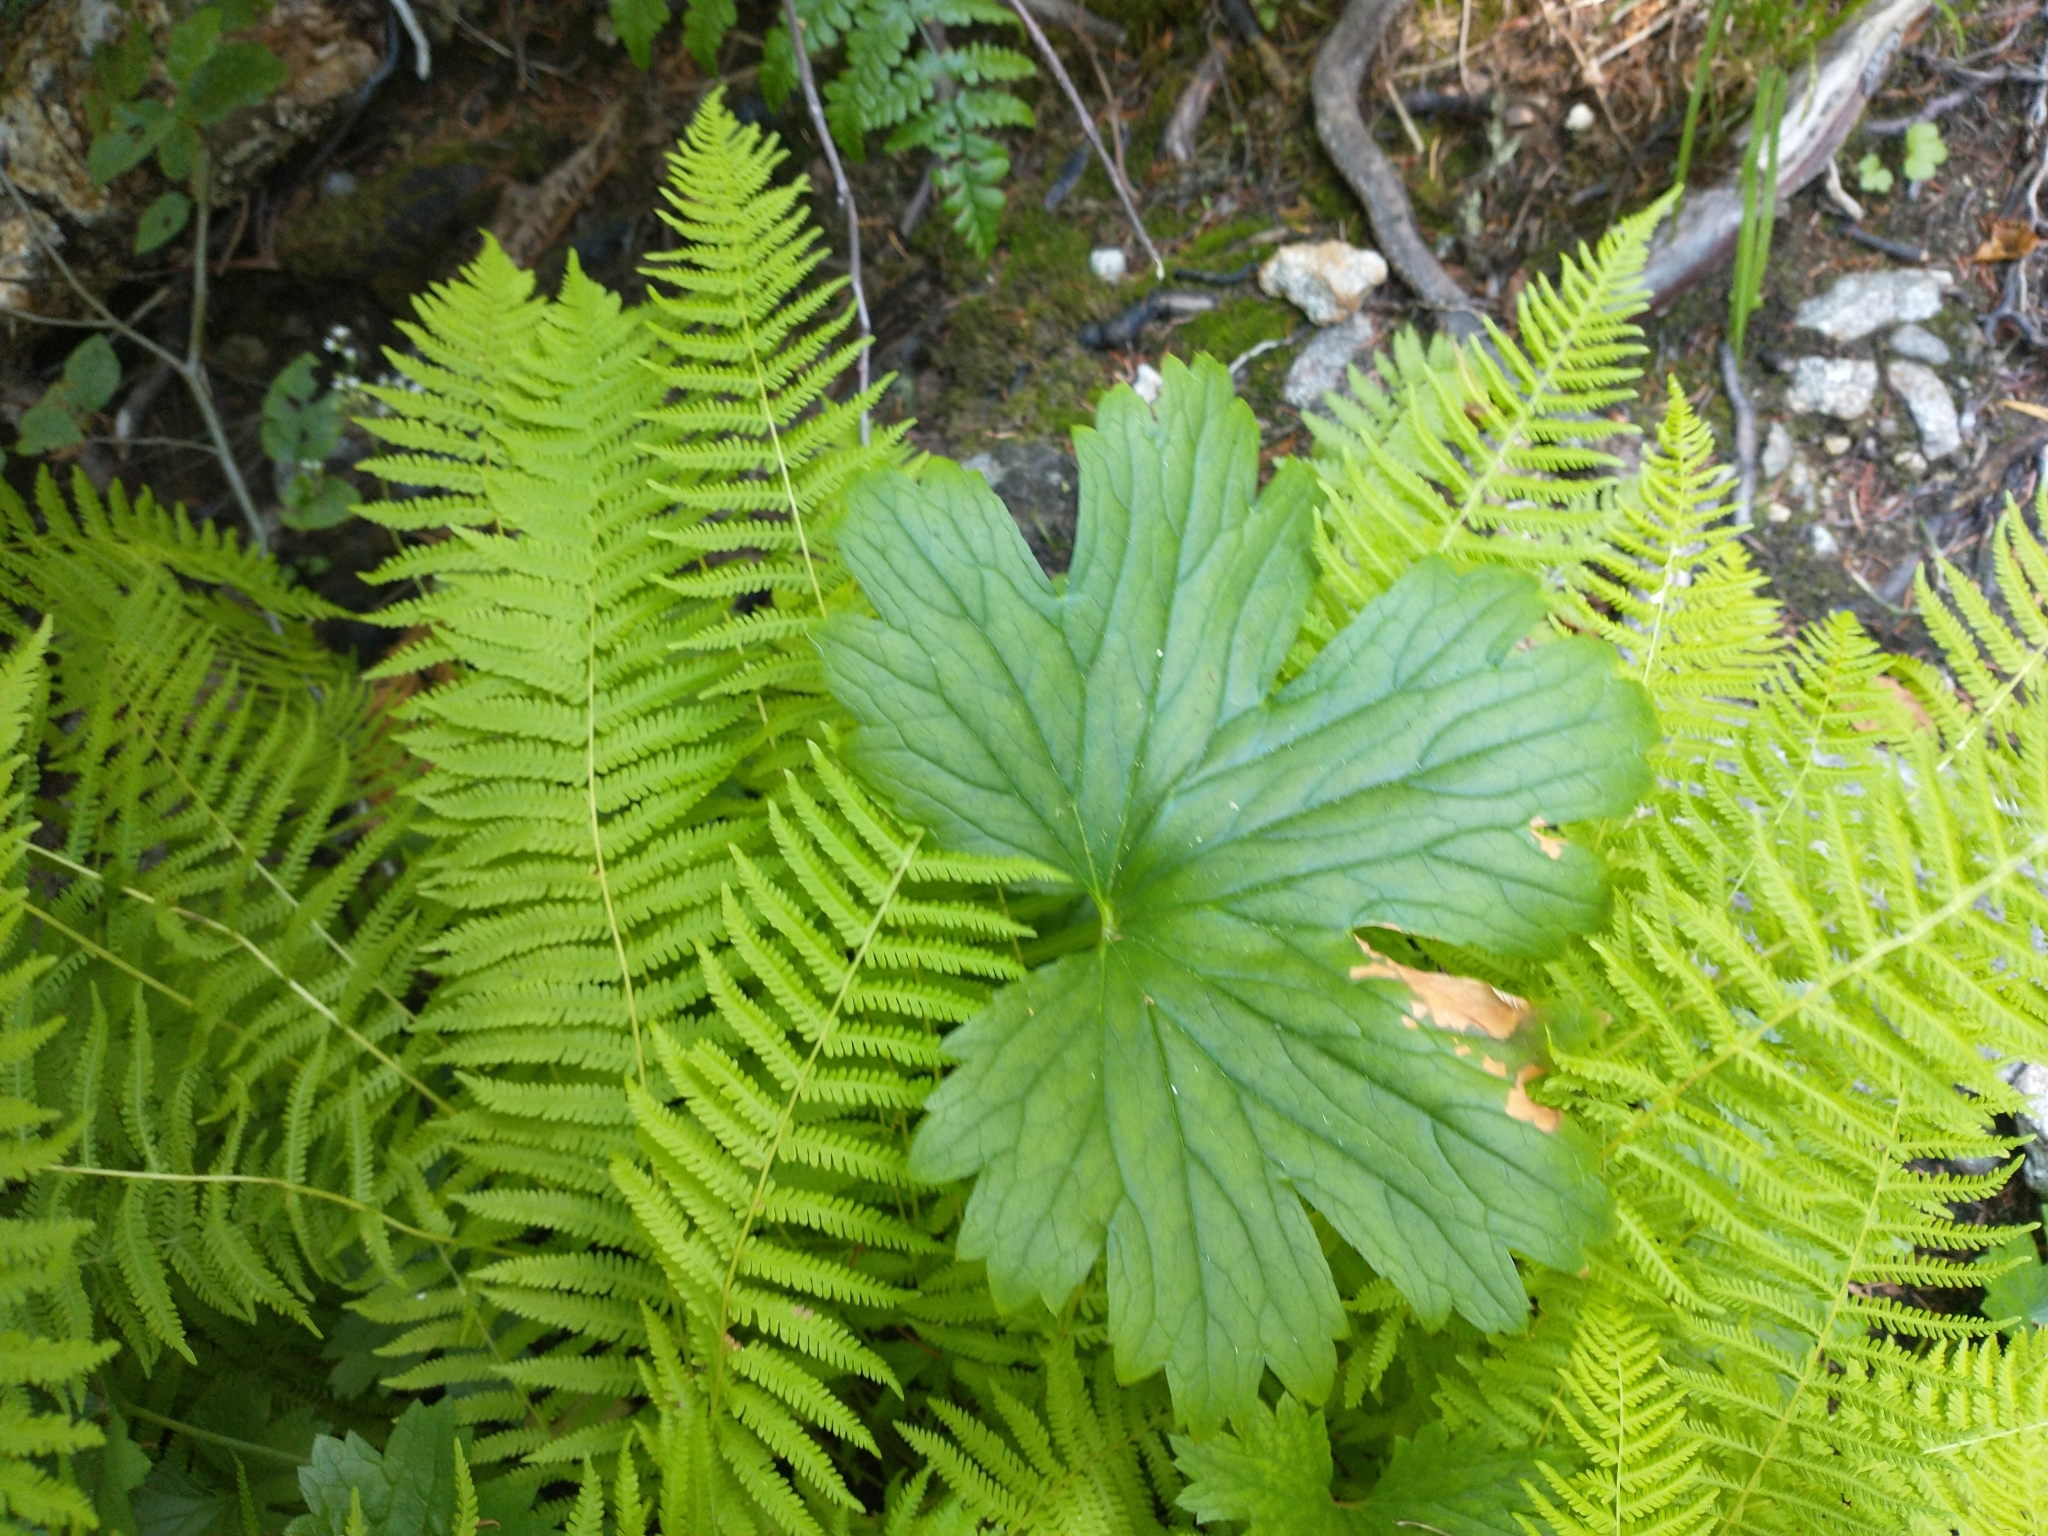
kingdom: Plantae
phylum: Tracheophyta
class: Magnoliopsida
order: Saxifragales
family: Saxifragaceae
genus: Boykinia
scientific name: Boykinia major
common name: Large boykinia
